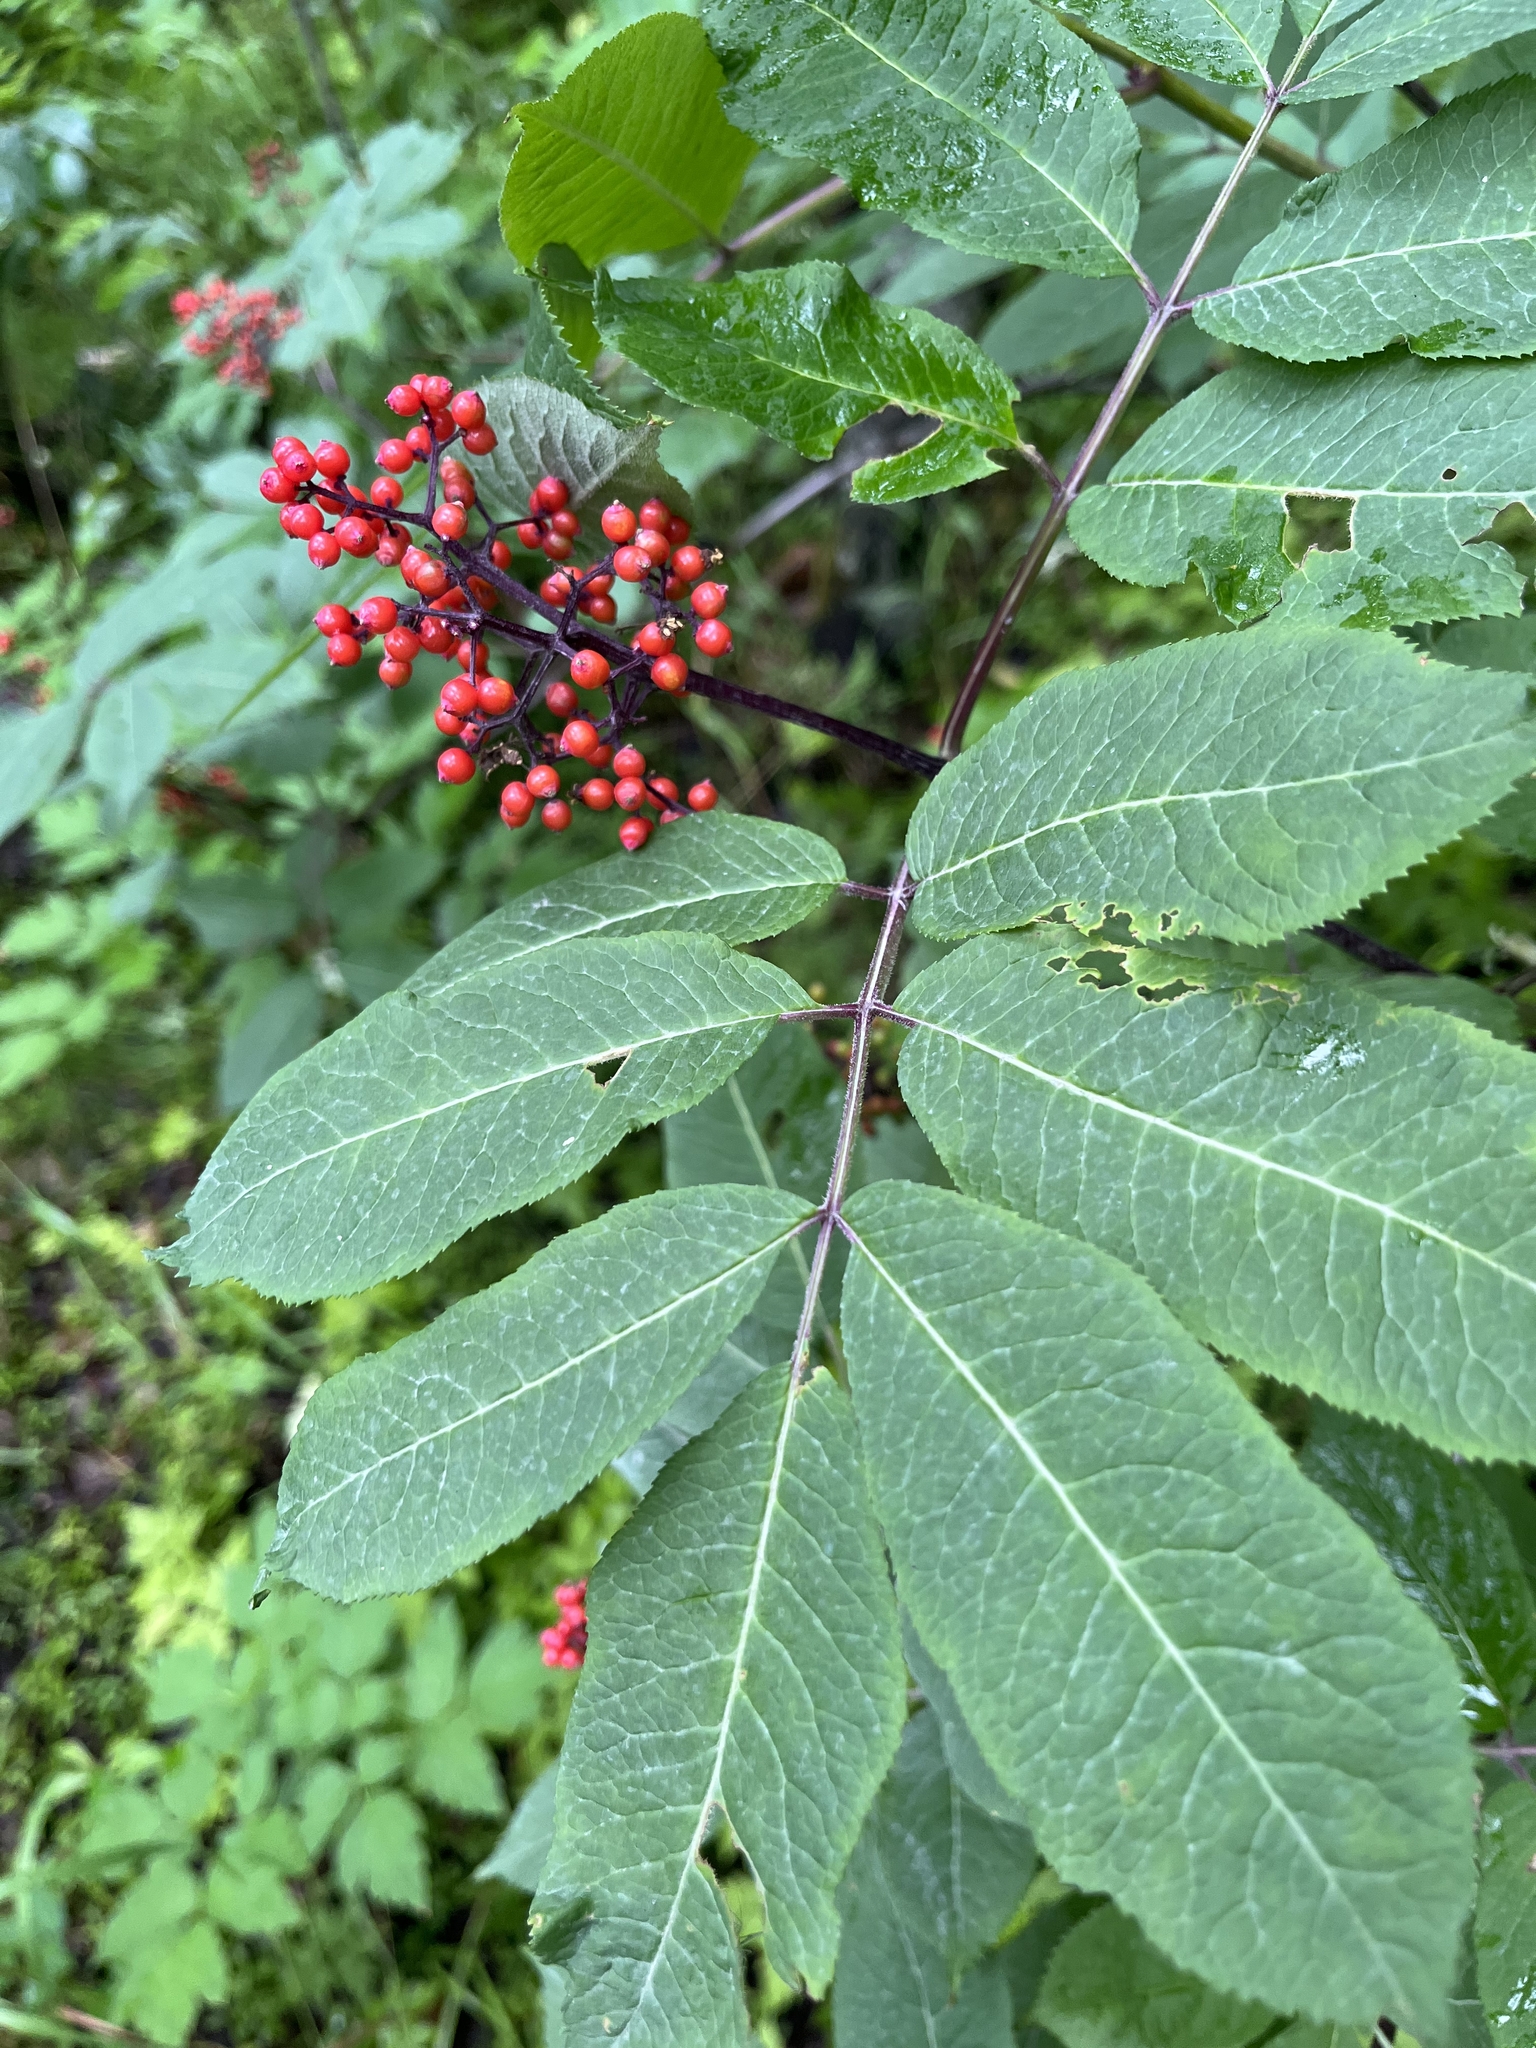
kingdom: Plantae
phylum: Tracheophyta
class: Magnoliopsida
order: Dipsacales
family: Viburnaceae
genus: Sambucus
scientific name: Sambucus racemosa
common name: Red-berried elder
